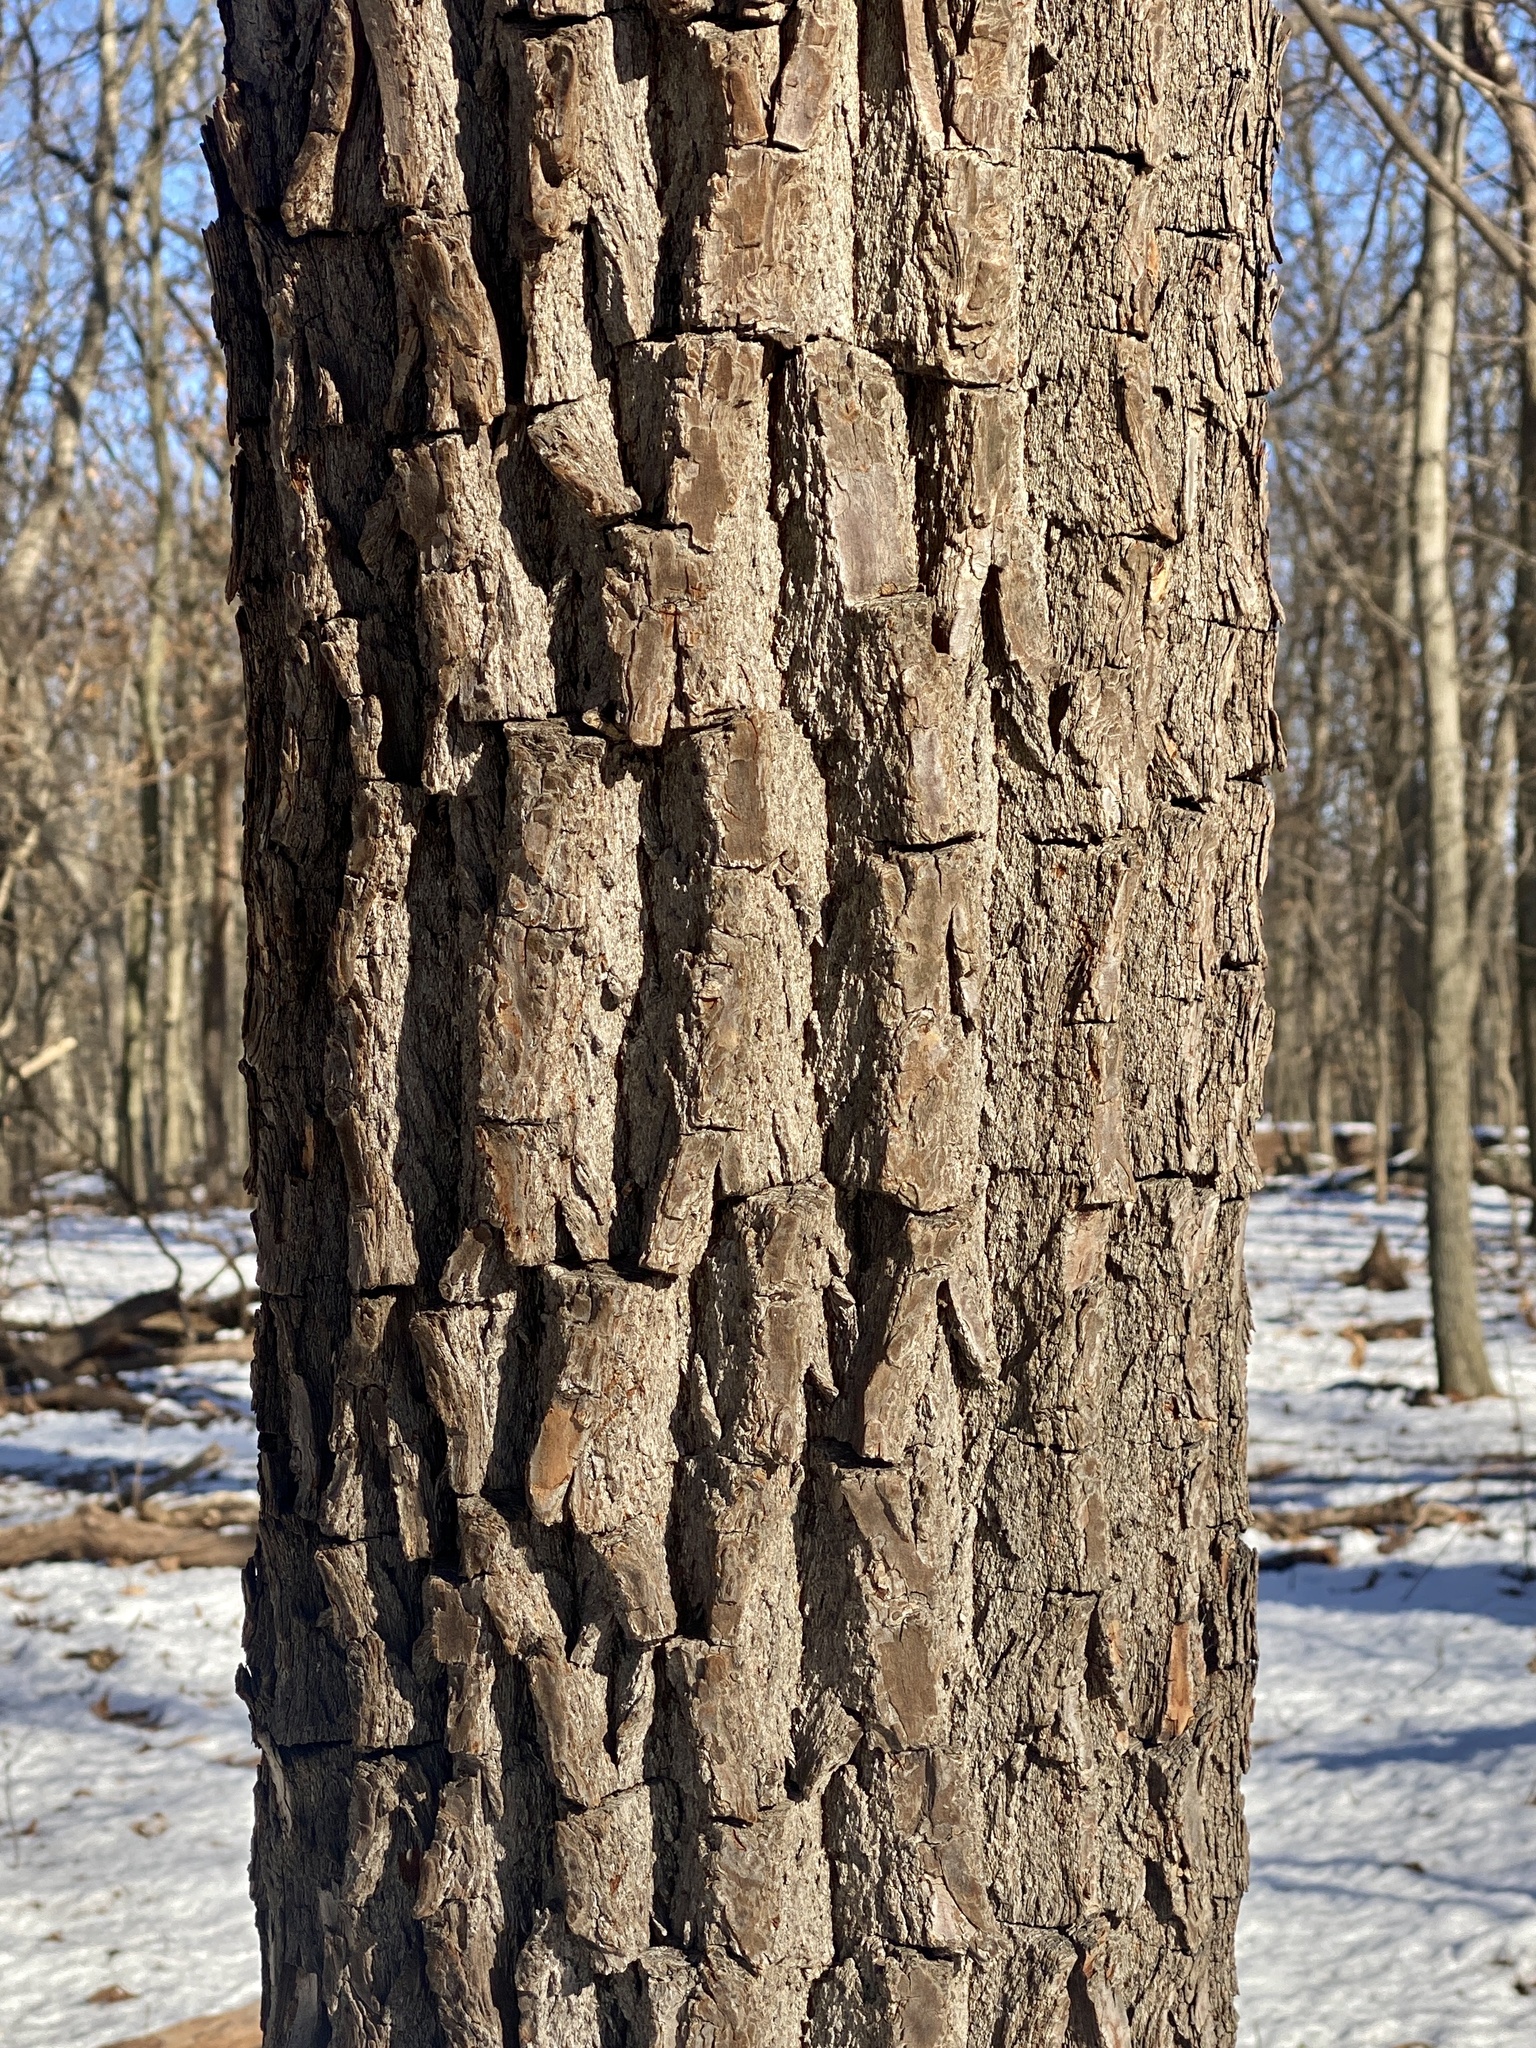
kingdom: Plantae
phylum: Tracheophyta
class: Magnoliopsida
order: Laurales
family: Lauraceae
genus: Sassafras
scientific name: Sassafras albidum
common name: Sassafras
